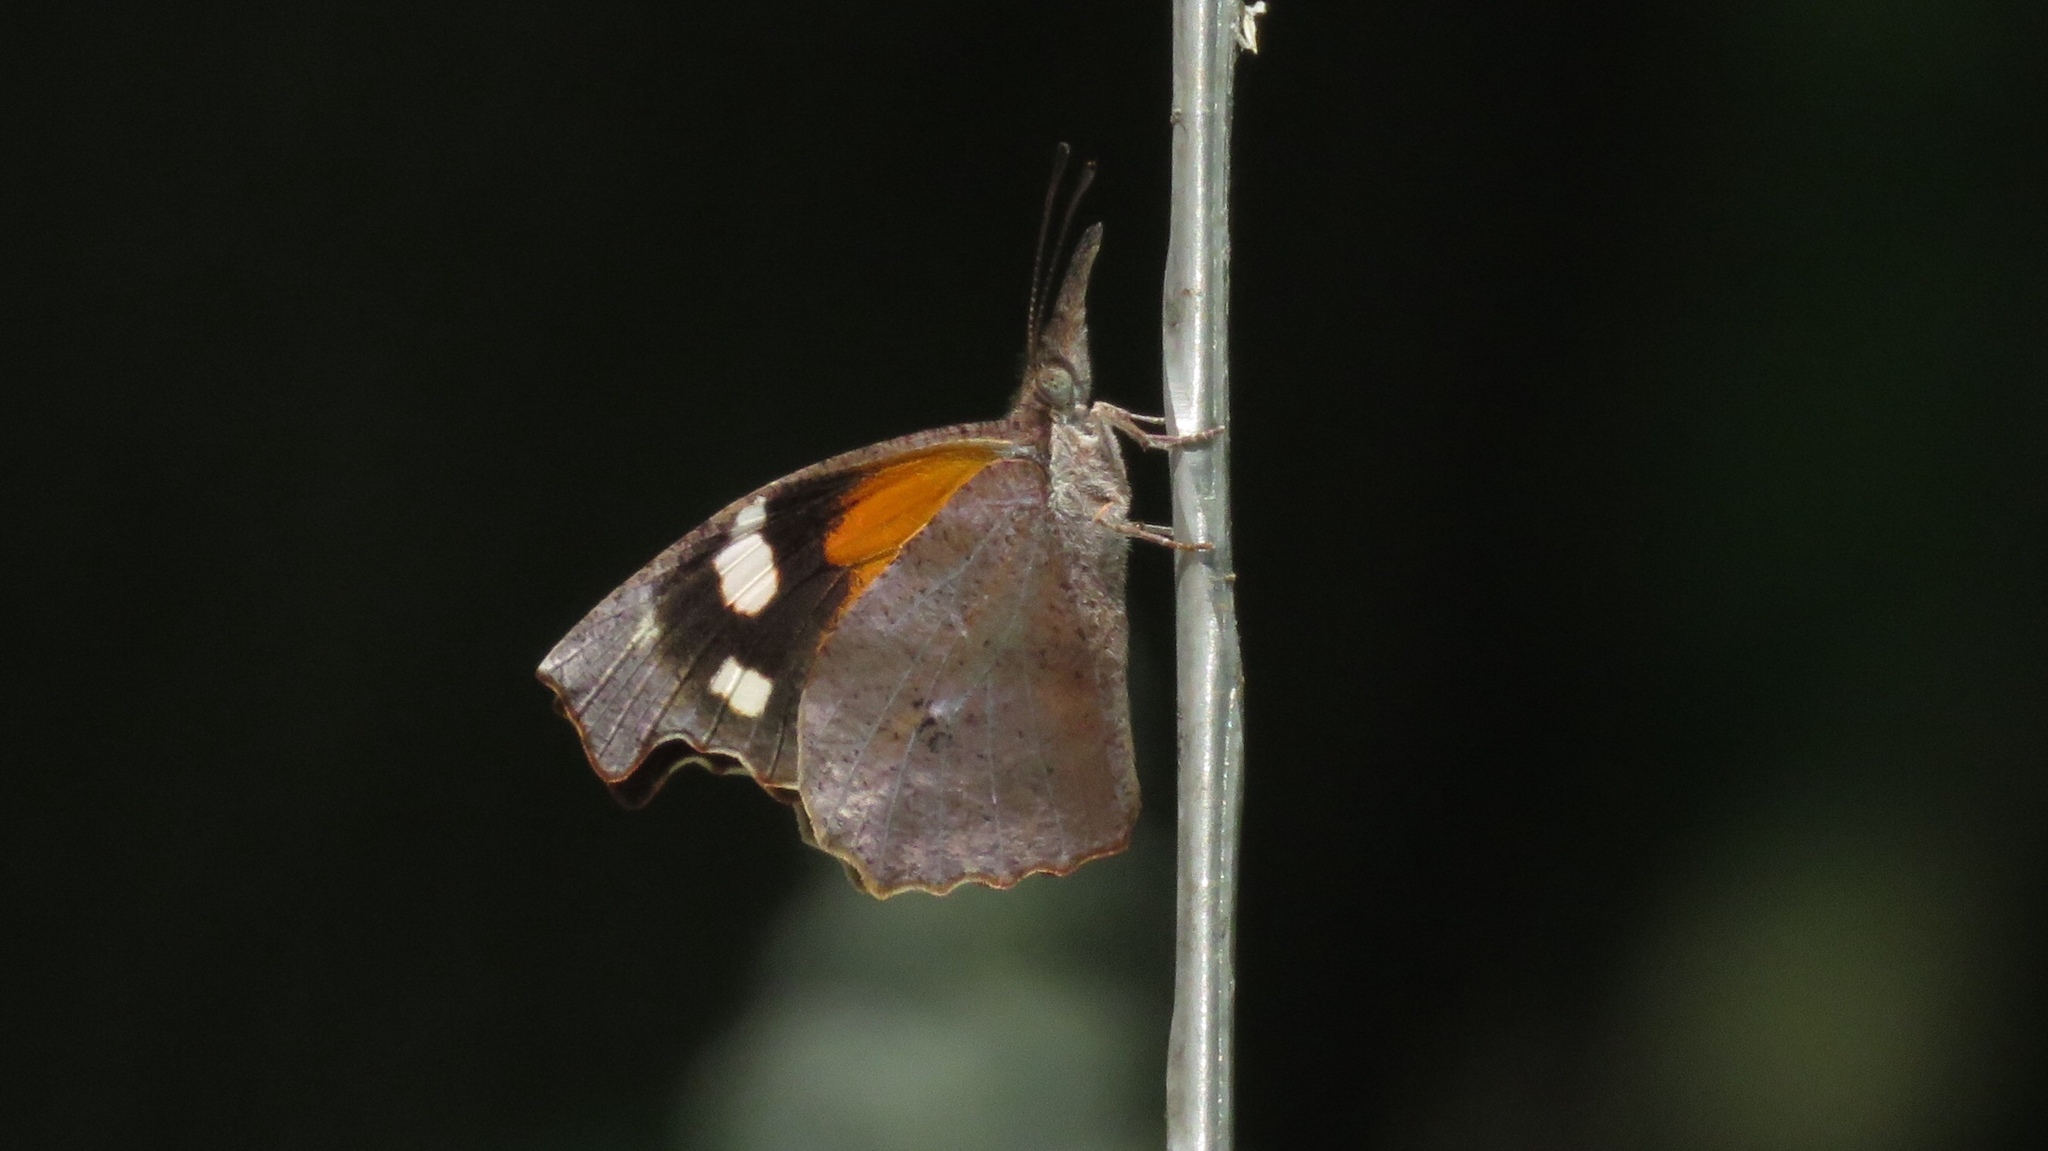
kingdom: Animalia
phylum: Arthropoda
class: Insecta
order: Lepidoptera
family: Nymphalidae
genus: Libytheana
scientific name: Libytheana carinenta
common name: American snout
